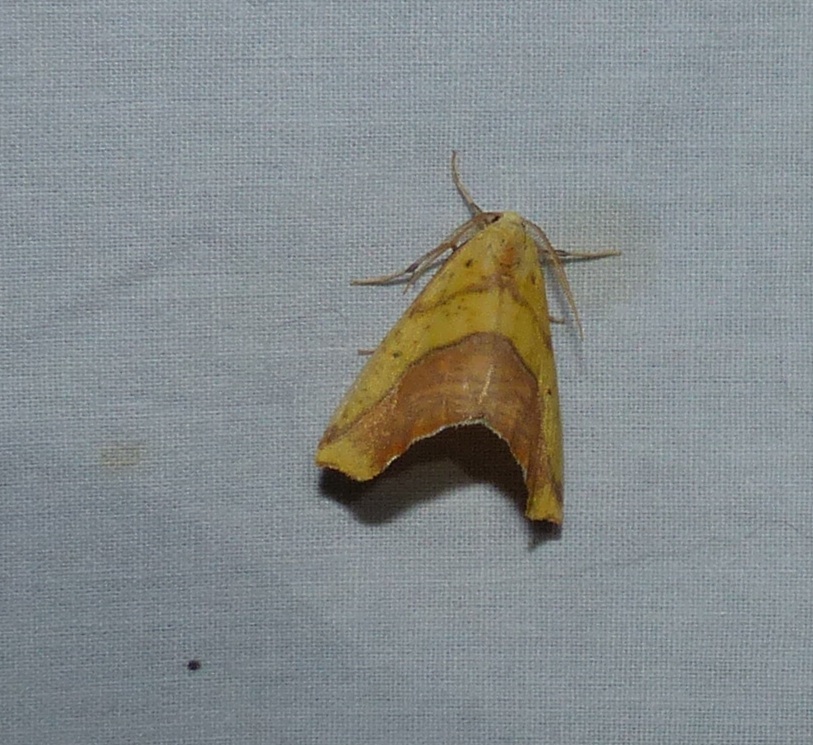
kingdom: Animalia
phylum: Arthropoda
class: Insecta
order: Lepidoptera
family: Geometridae
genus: Sicya
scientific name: Sicya macularia
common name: Sharp-lined yellow
